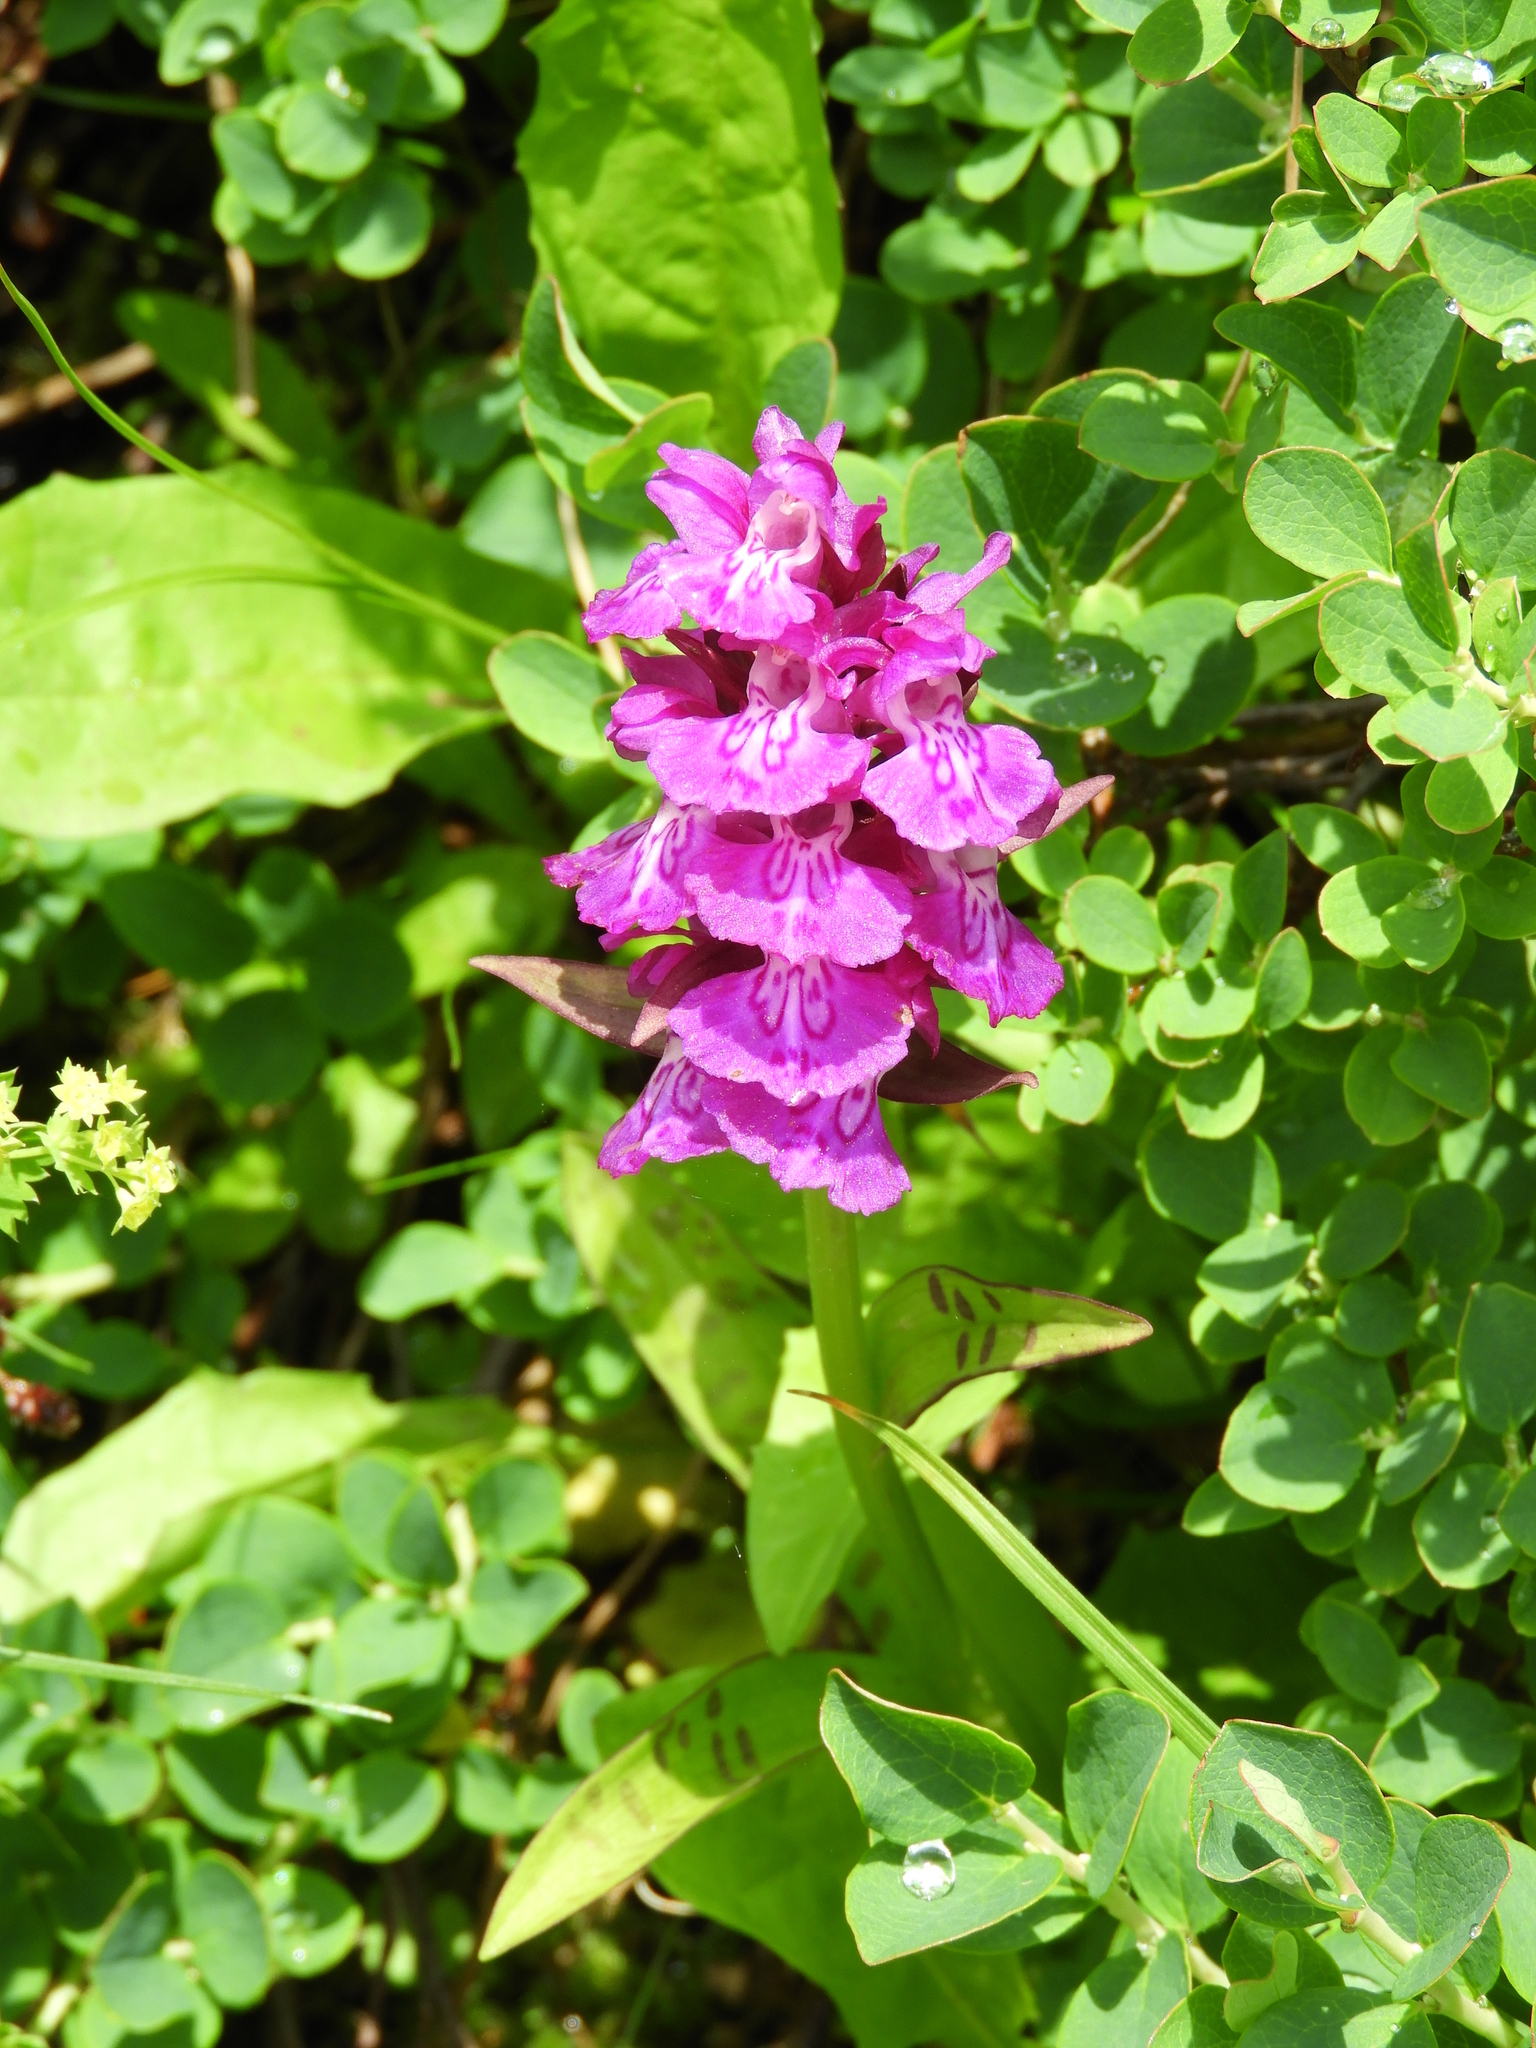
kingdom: Plantae
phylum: Tracheophyta
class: Liliopsida
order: Asparagales
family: Orchidaceae
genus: Dactylorhiza
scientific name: Dactylorhiza maculata
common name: Heath spotted-orchid
